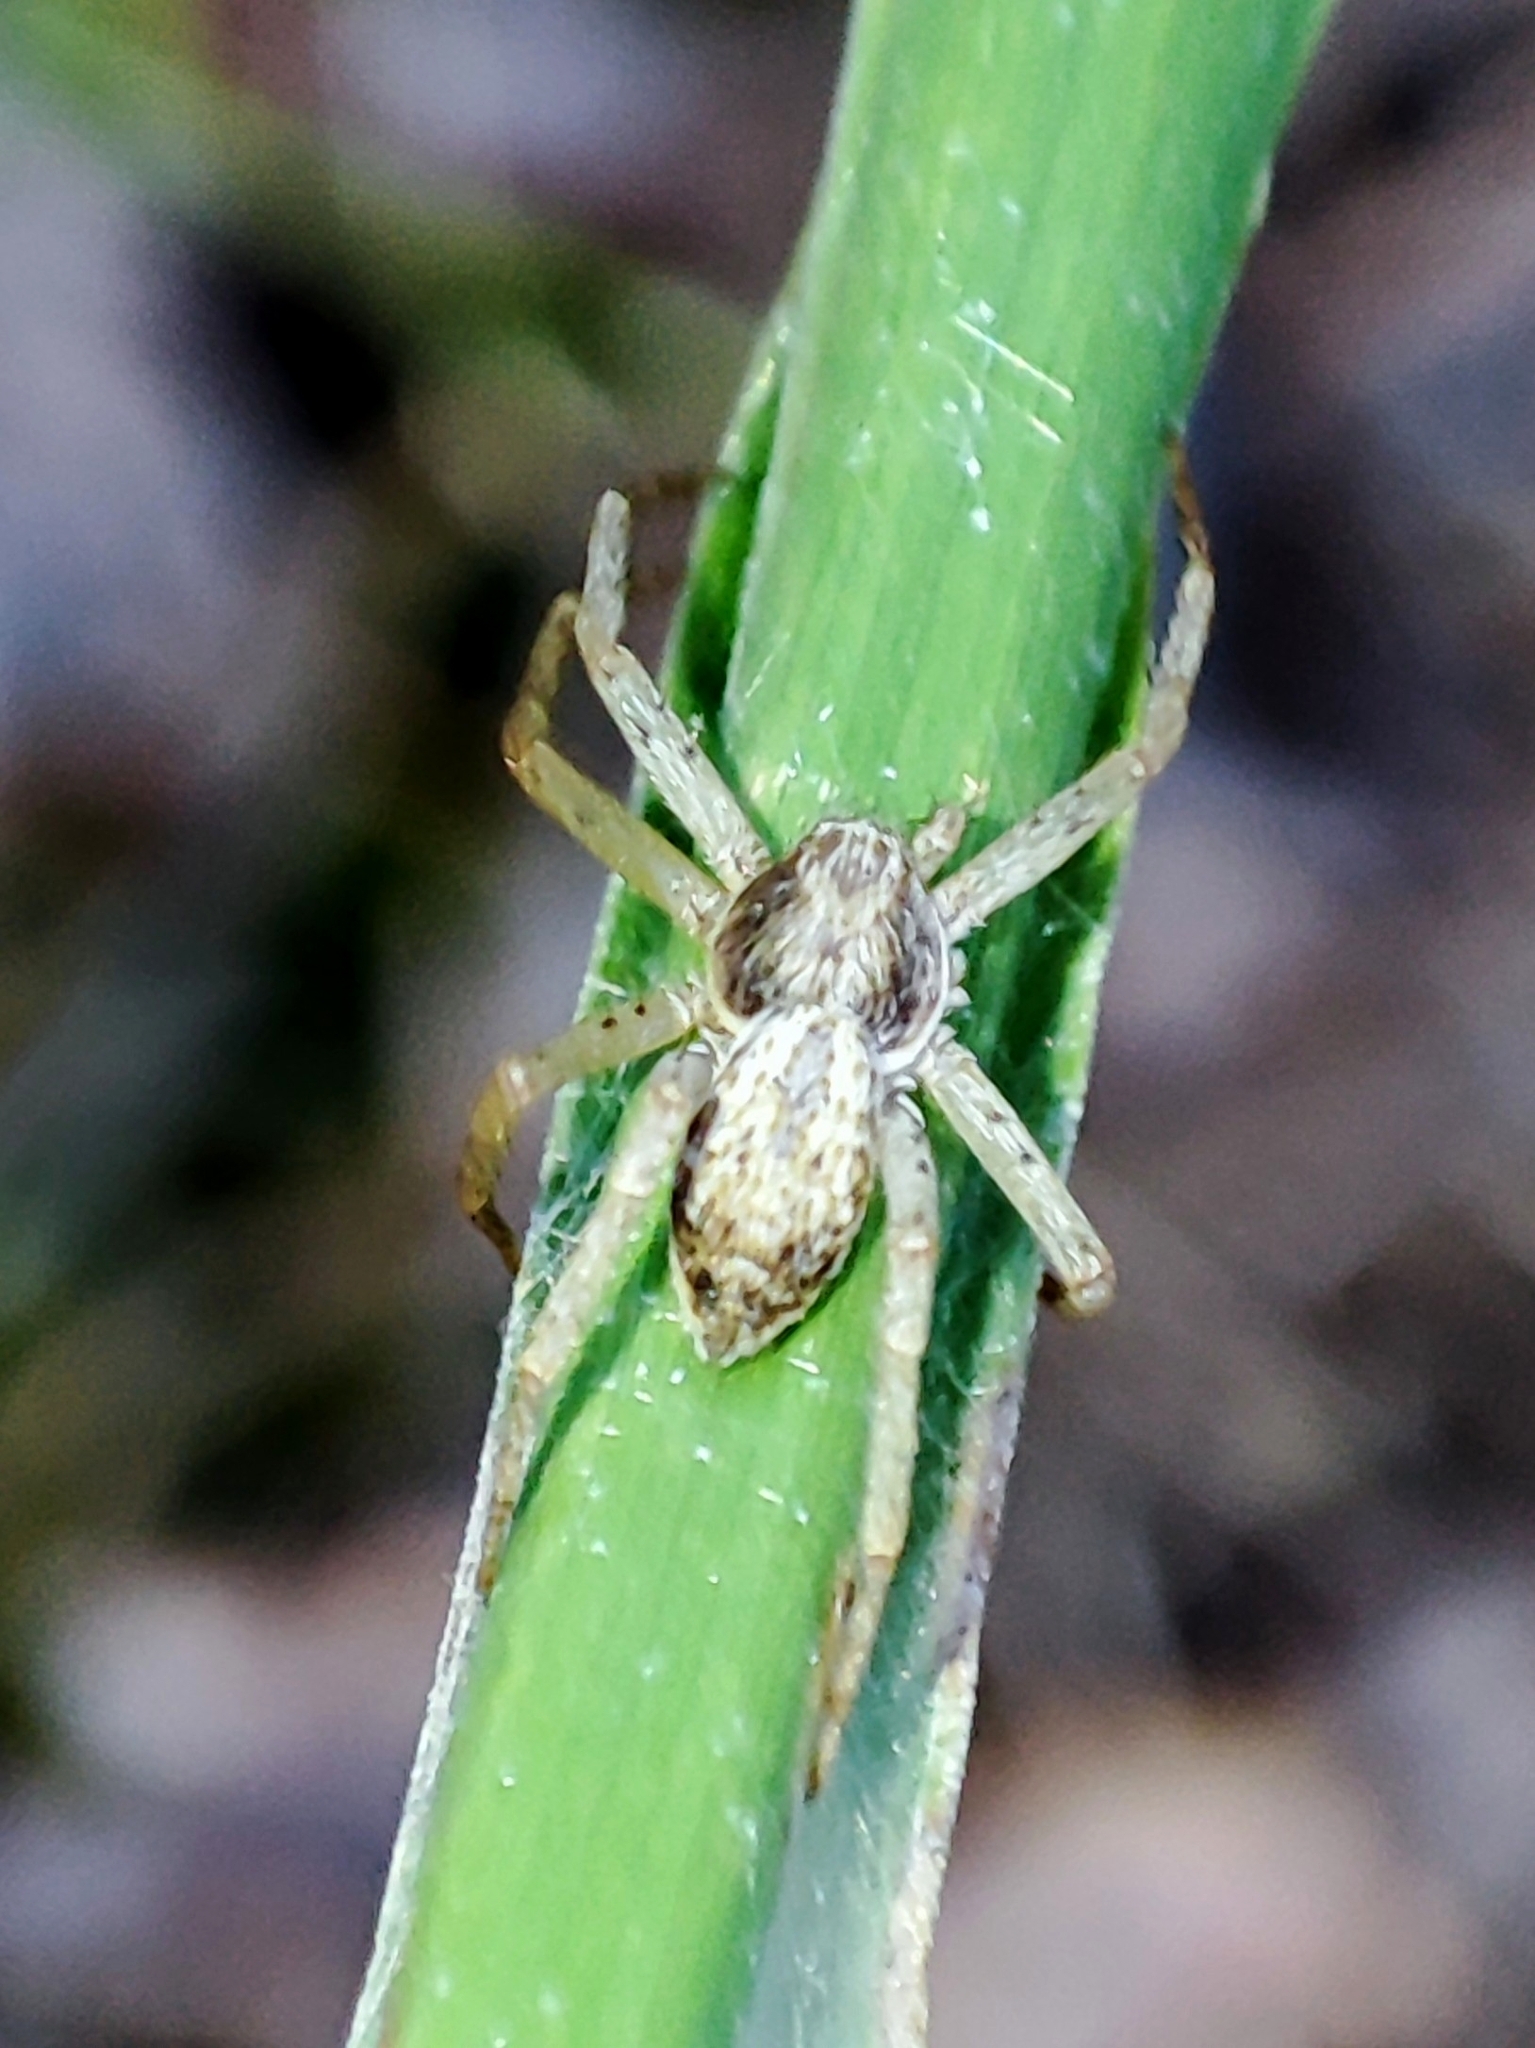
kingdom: Animalia
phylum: Arthropoda
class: Arachnida
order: Araneae
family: Philodromidae
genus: Philodromus
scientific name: Philodromus dispar
